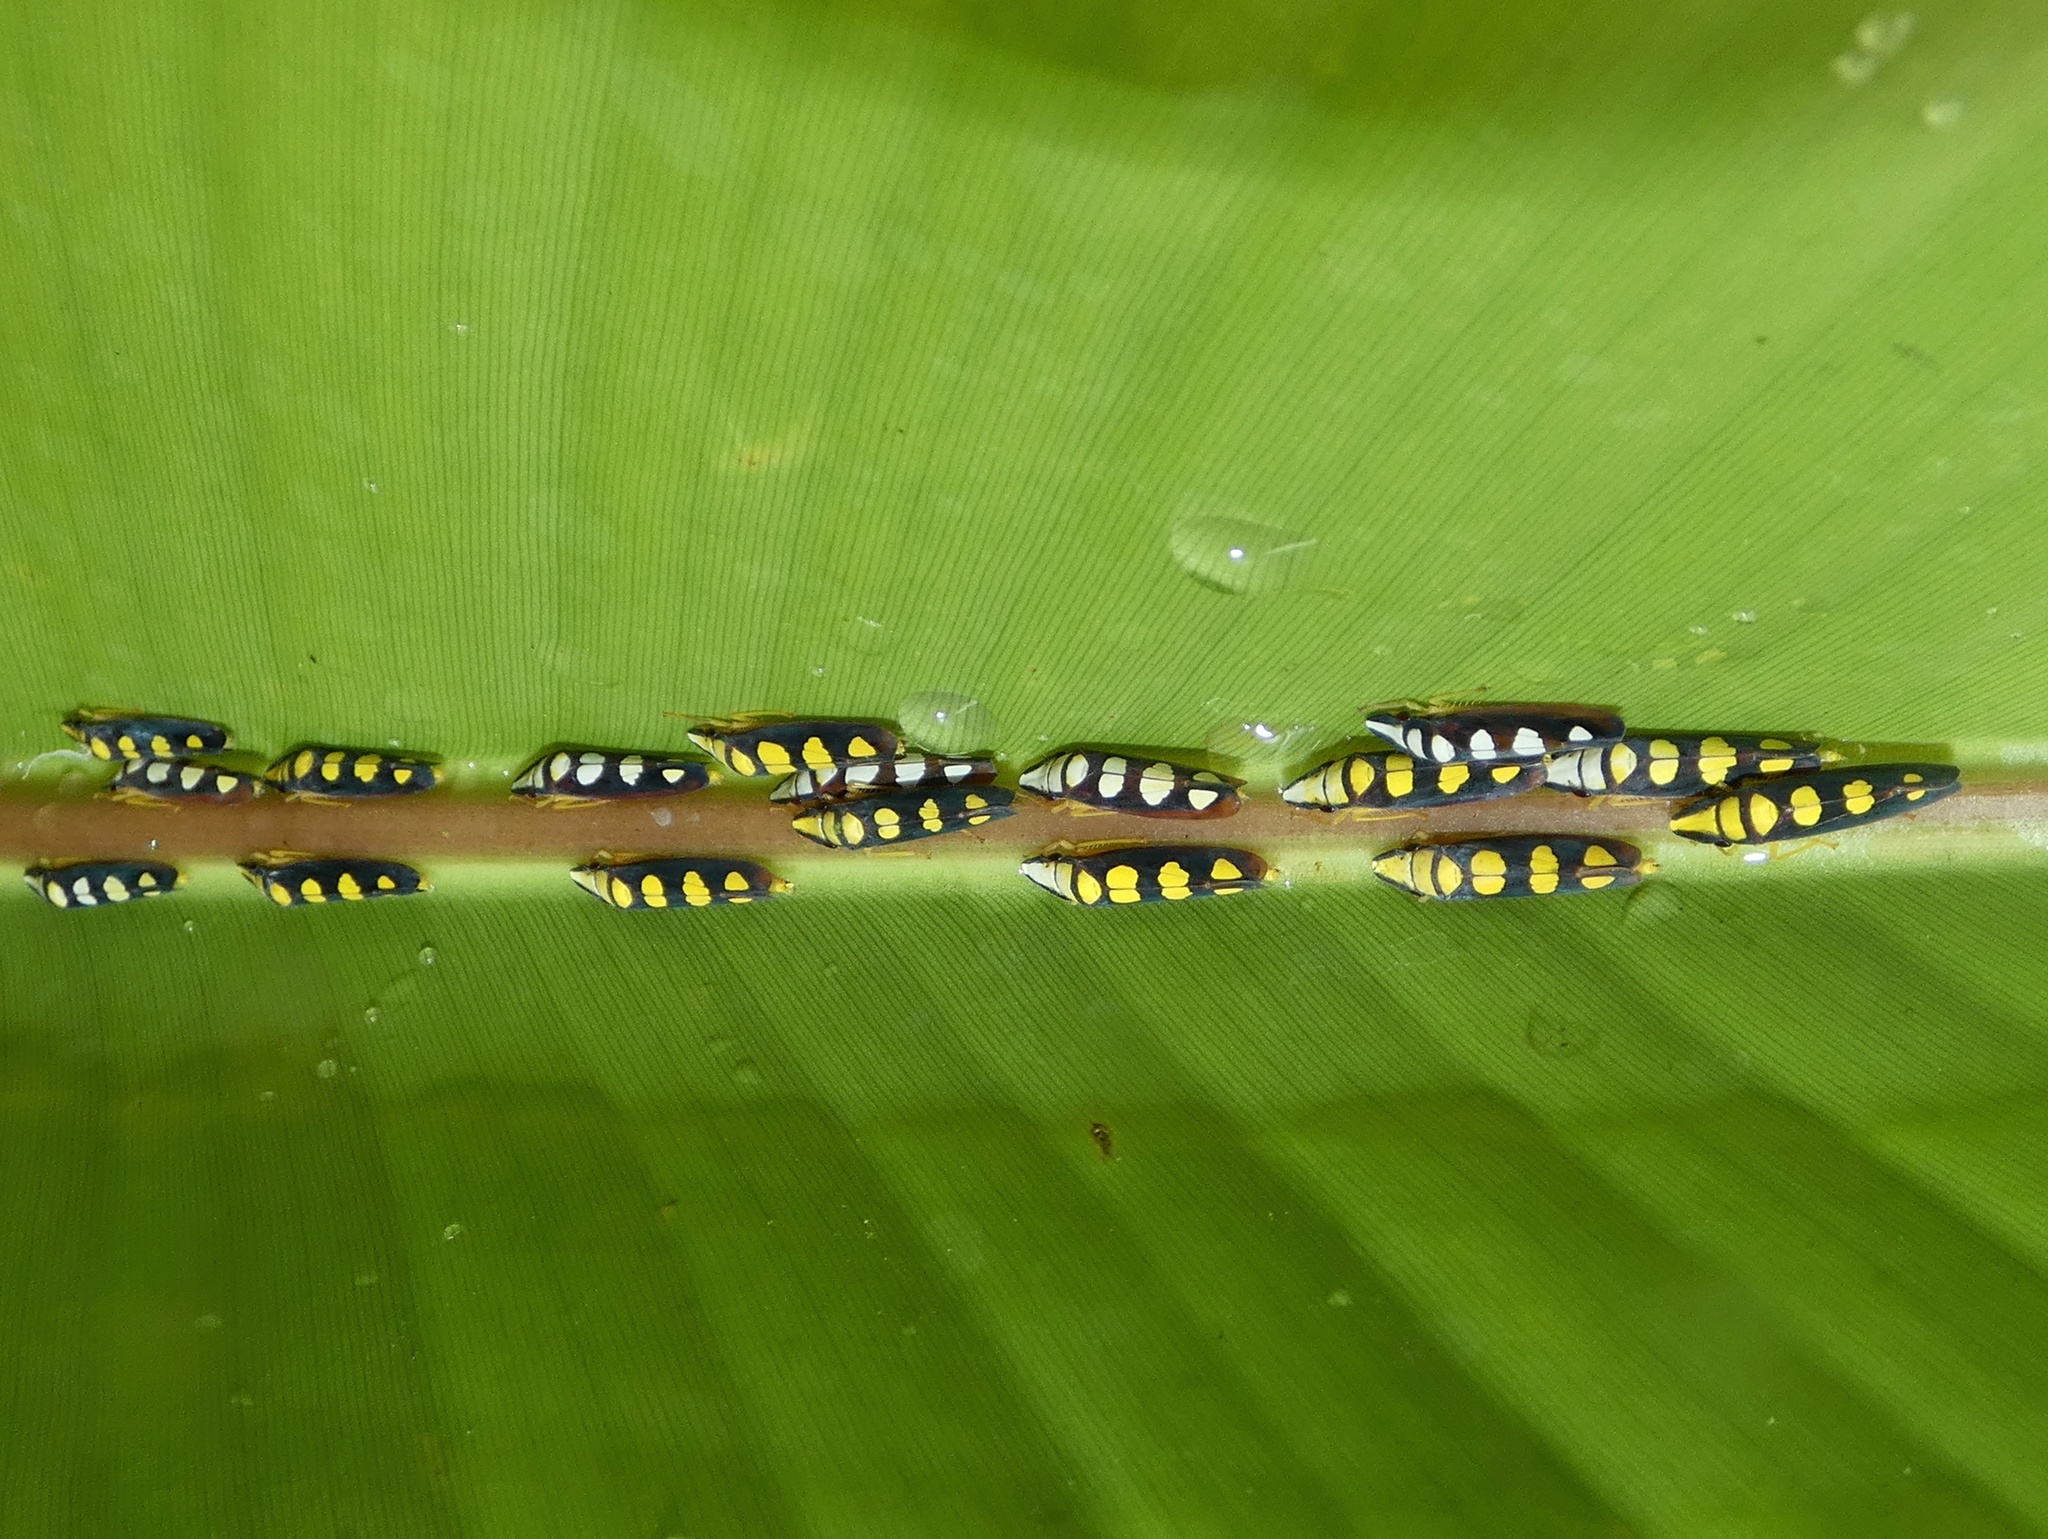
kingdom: Animalia
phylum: Arthropoda
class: Insecta
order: Hemiptera
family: Cicadellidae
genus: Platygonia
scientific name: Platygonia spatulata
